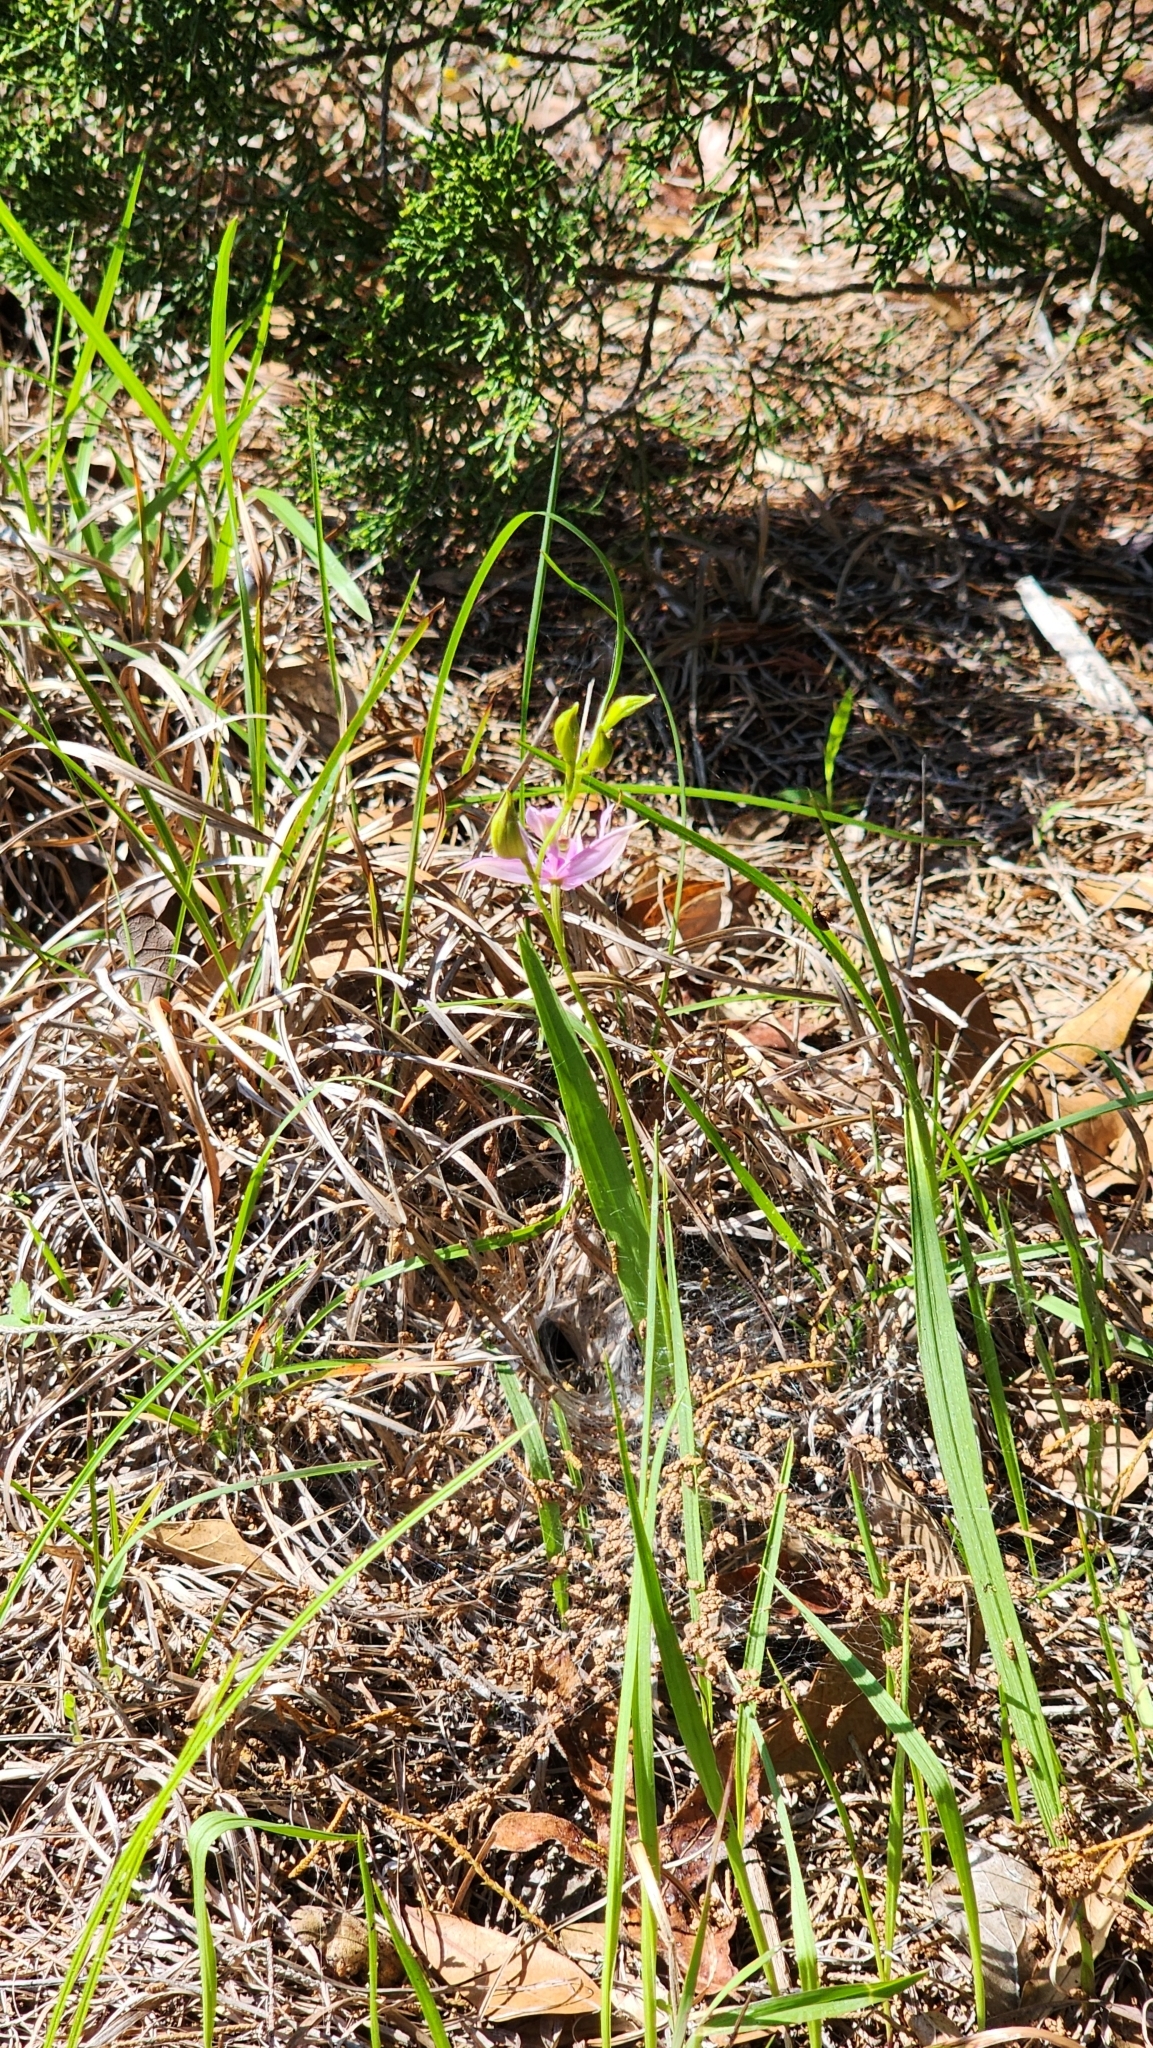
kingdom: Plantae
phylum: Tracheophyta
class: Liliopsida
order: Asparagales
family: Orchidaceae
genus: Calopogon
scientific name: Calopogon oklahomensis
